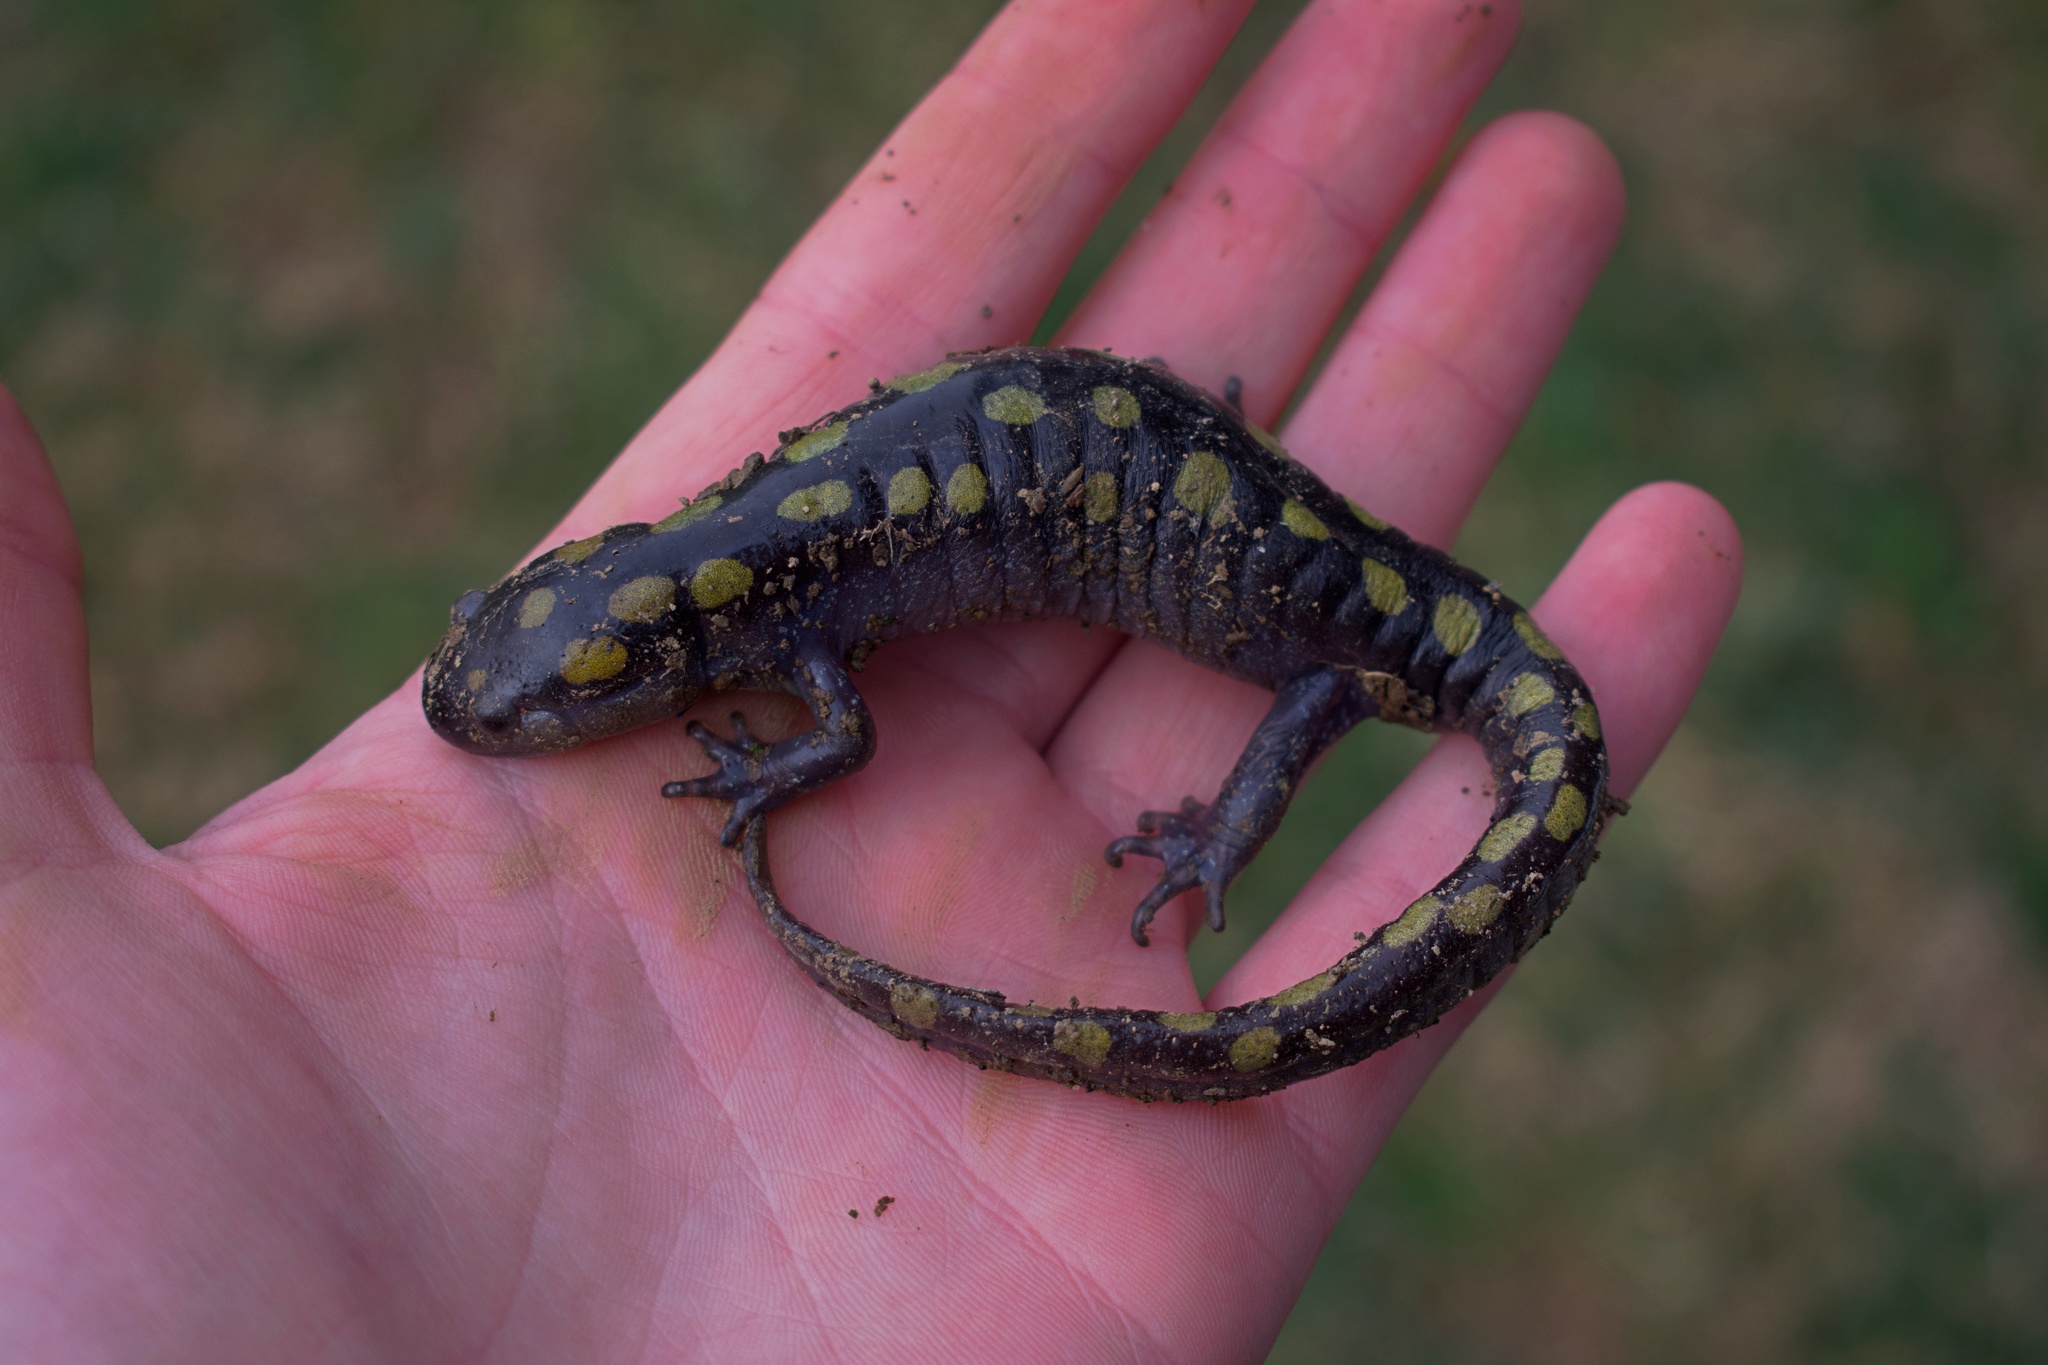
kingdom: Animalia
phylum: Chordata
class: Amphibia
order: Caudata
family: Ambystomatidae
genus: Ambystoma
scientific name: Ambystoma maculatum
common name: Spotted salamander
